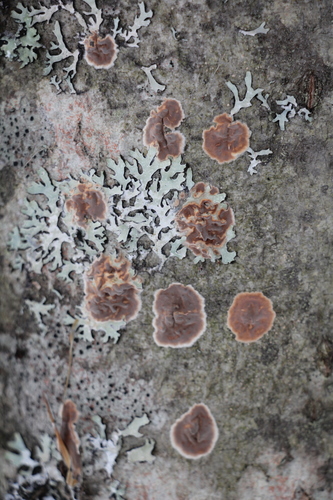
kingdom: Fungi
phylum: Basidiomycota
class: Agaricomycetes
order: Russulales
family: Peniophoraceae
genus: Peniophora
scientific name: Peniophora incarnata
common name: Rosy crust
